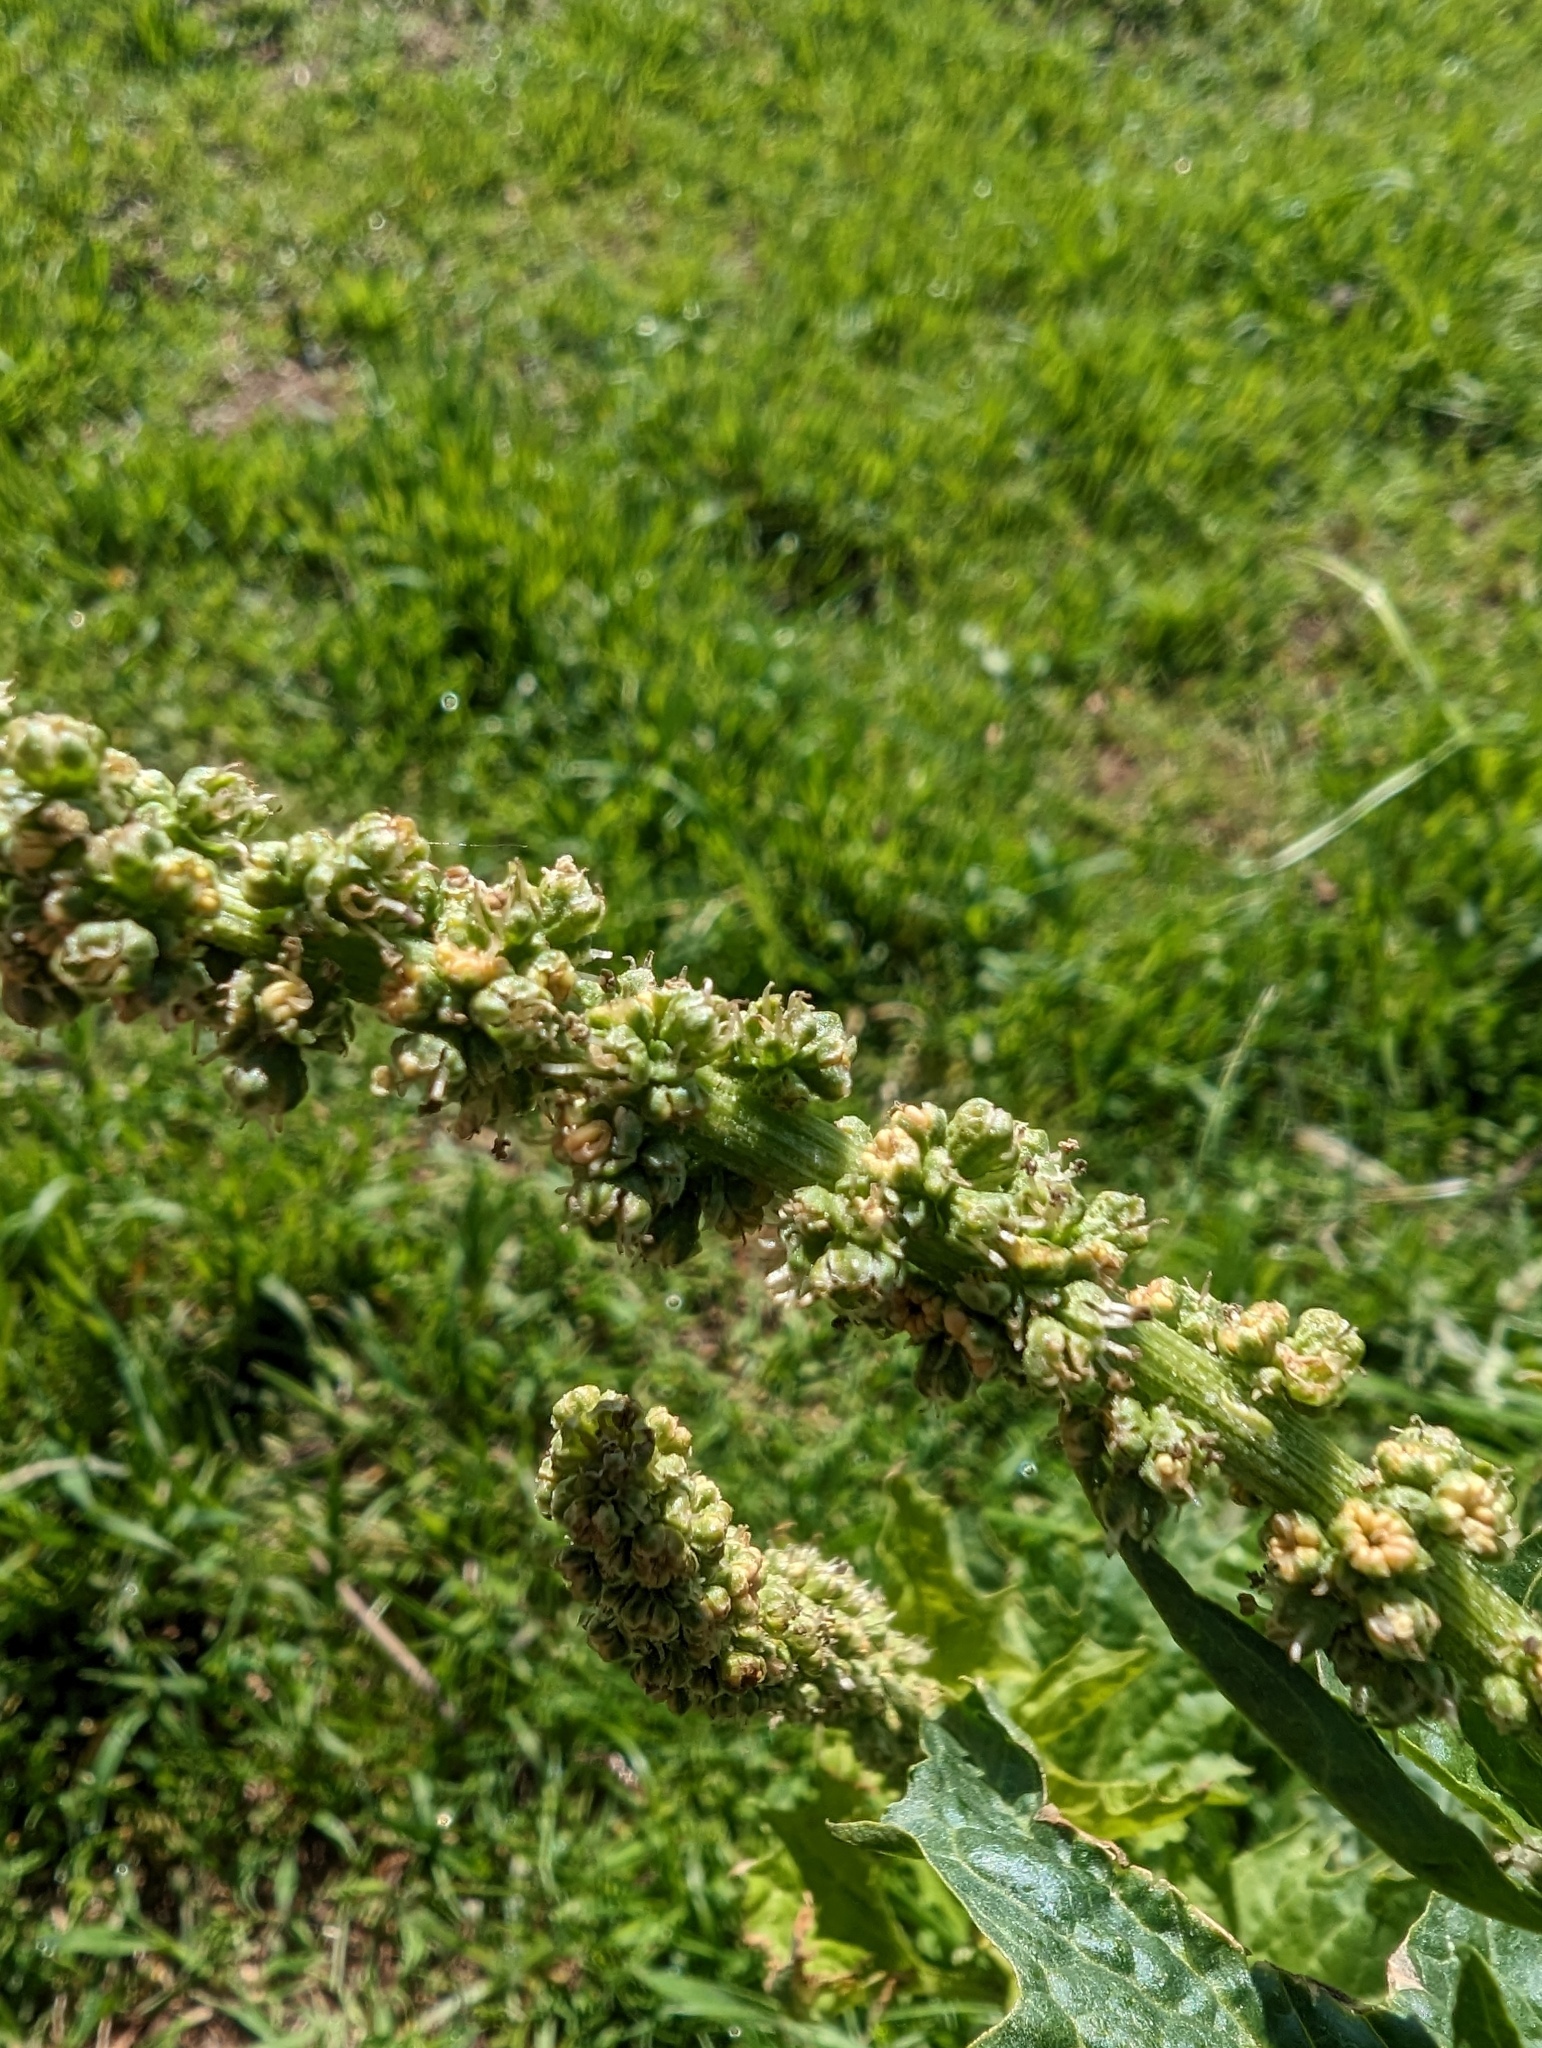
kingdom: Plantae
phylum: Tracheophyta
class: Magnoliopsida
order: Caryophyllales
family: Amaranthaceae
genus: Blitum
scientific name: Blitum californicum
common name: California goosefoot
